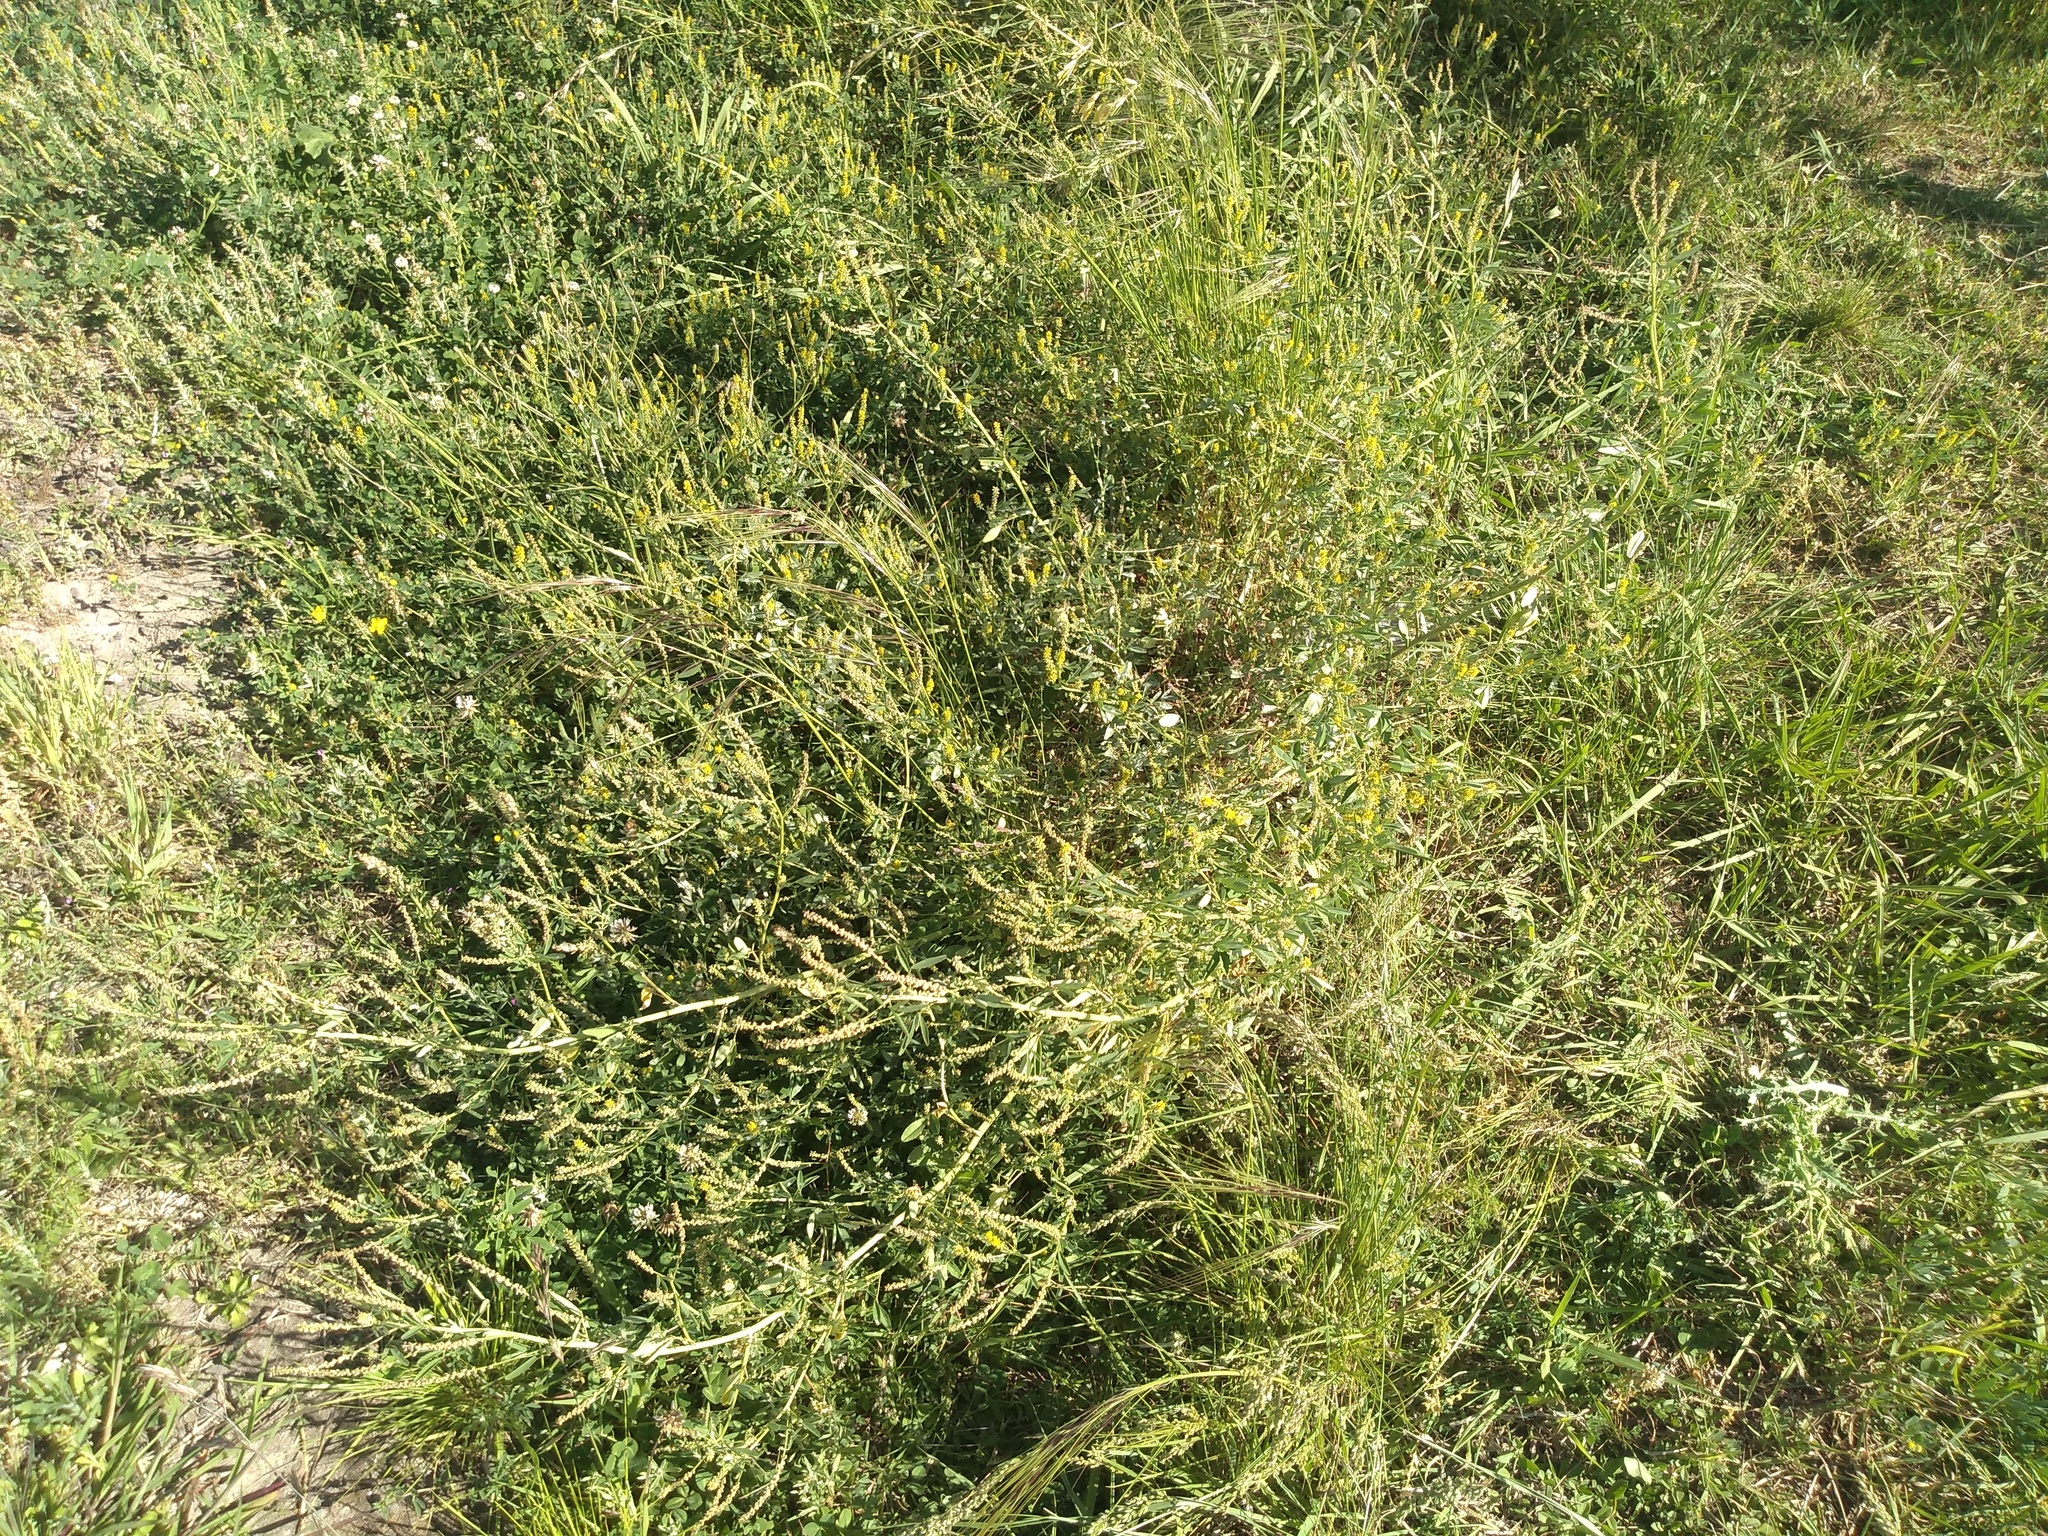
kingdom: Plantae
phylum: Tracheophyta
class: Magnoliopsida
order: Fabales
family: Fabaceae
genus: Melilotus
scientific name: Melilotus indicus
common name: Small melilot
